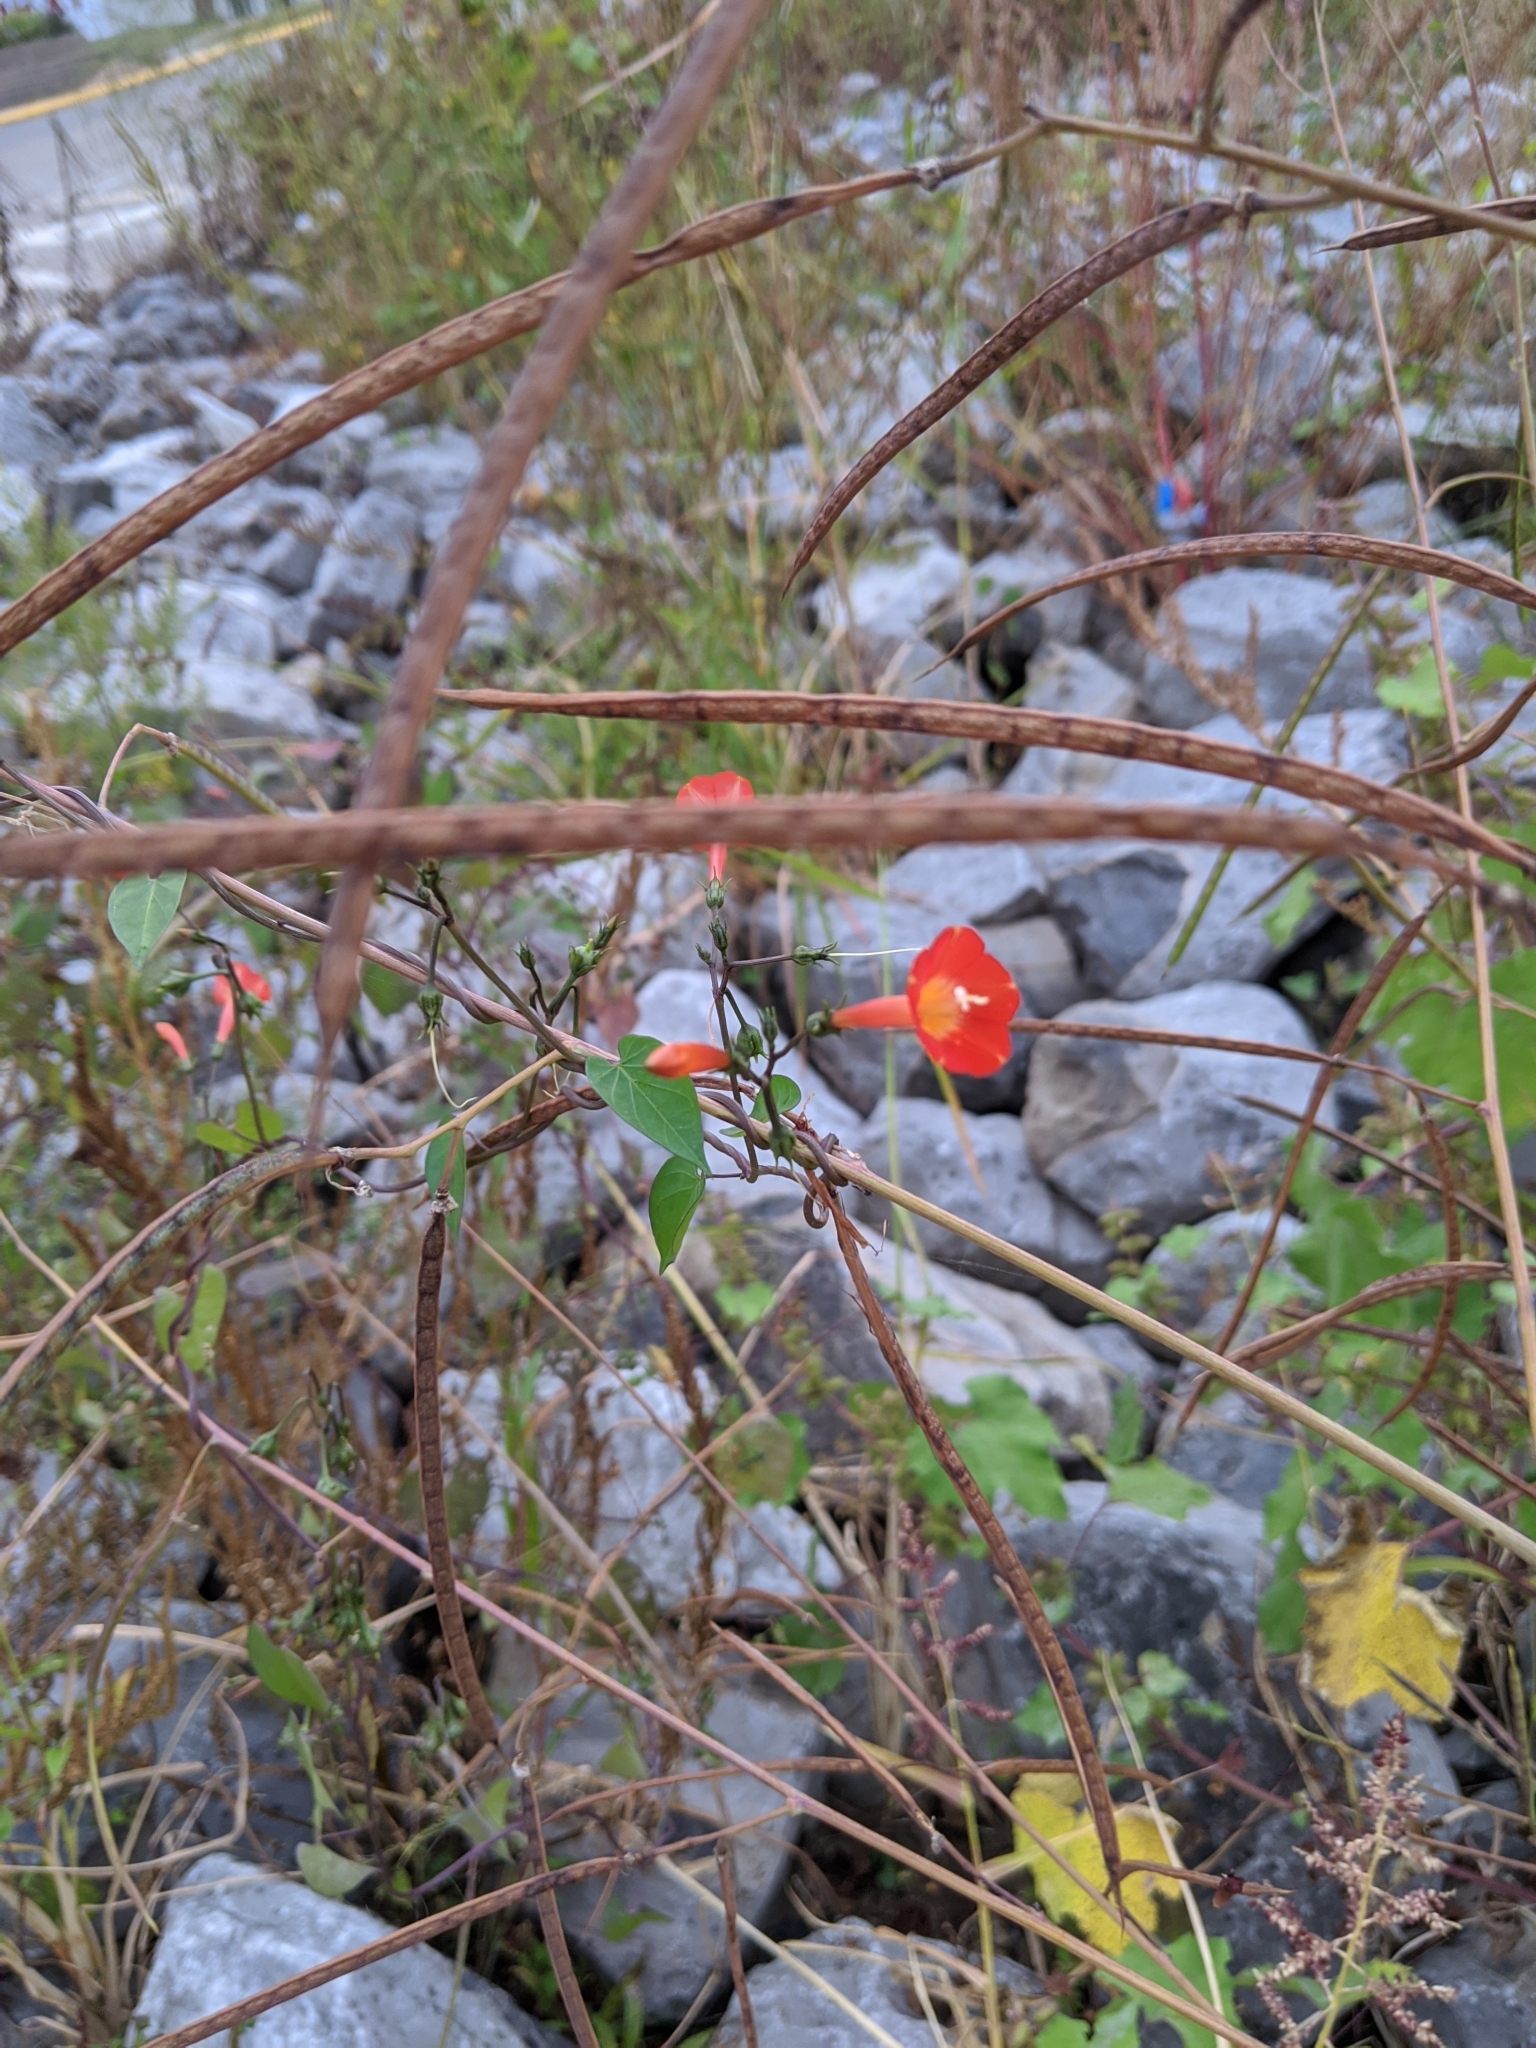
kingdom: Plantae
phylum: Tracheophyta
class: Magnoliopsida
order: Solanales
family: Convolvulaceae
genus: Ipomoea
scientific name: Ipomoea coccinea
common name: Red morning-glory
